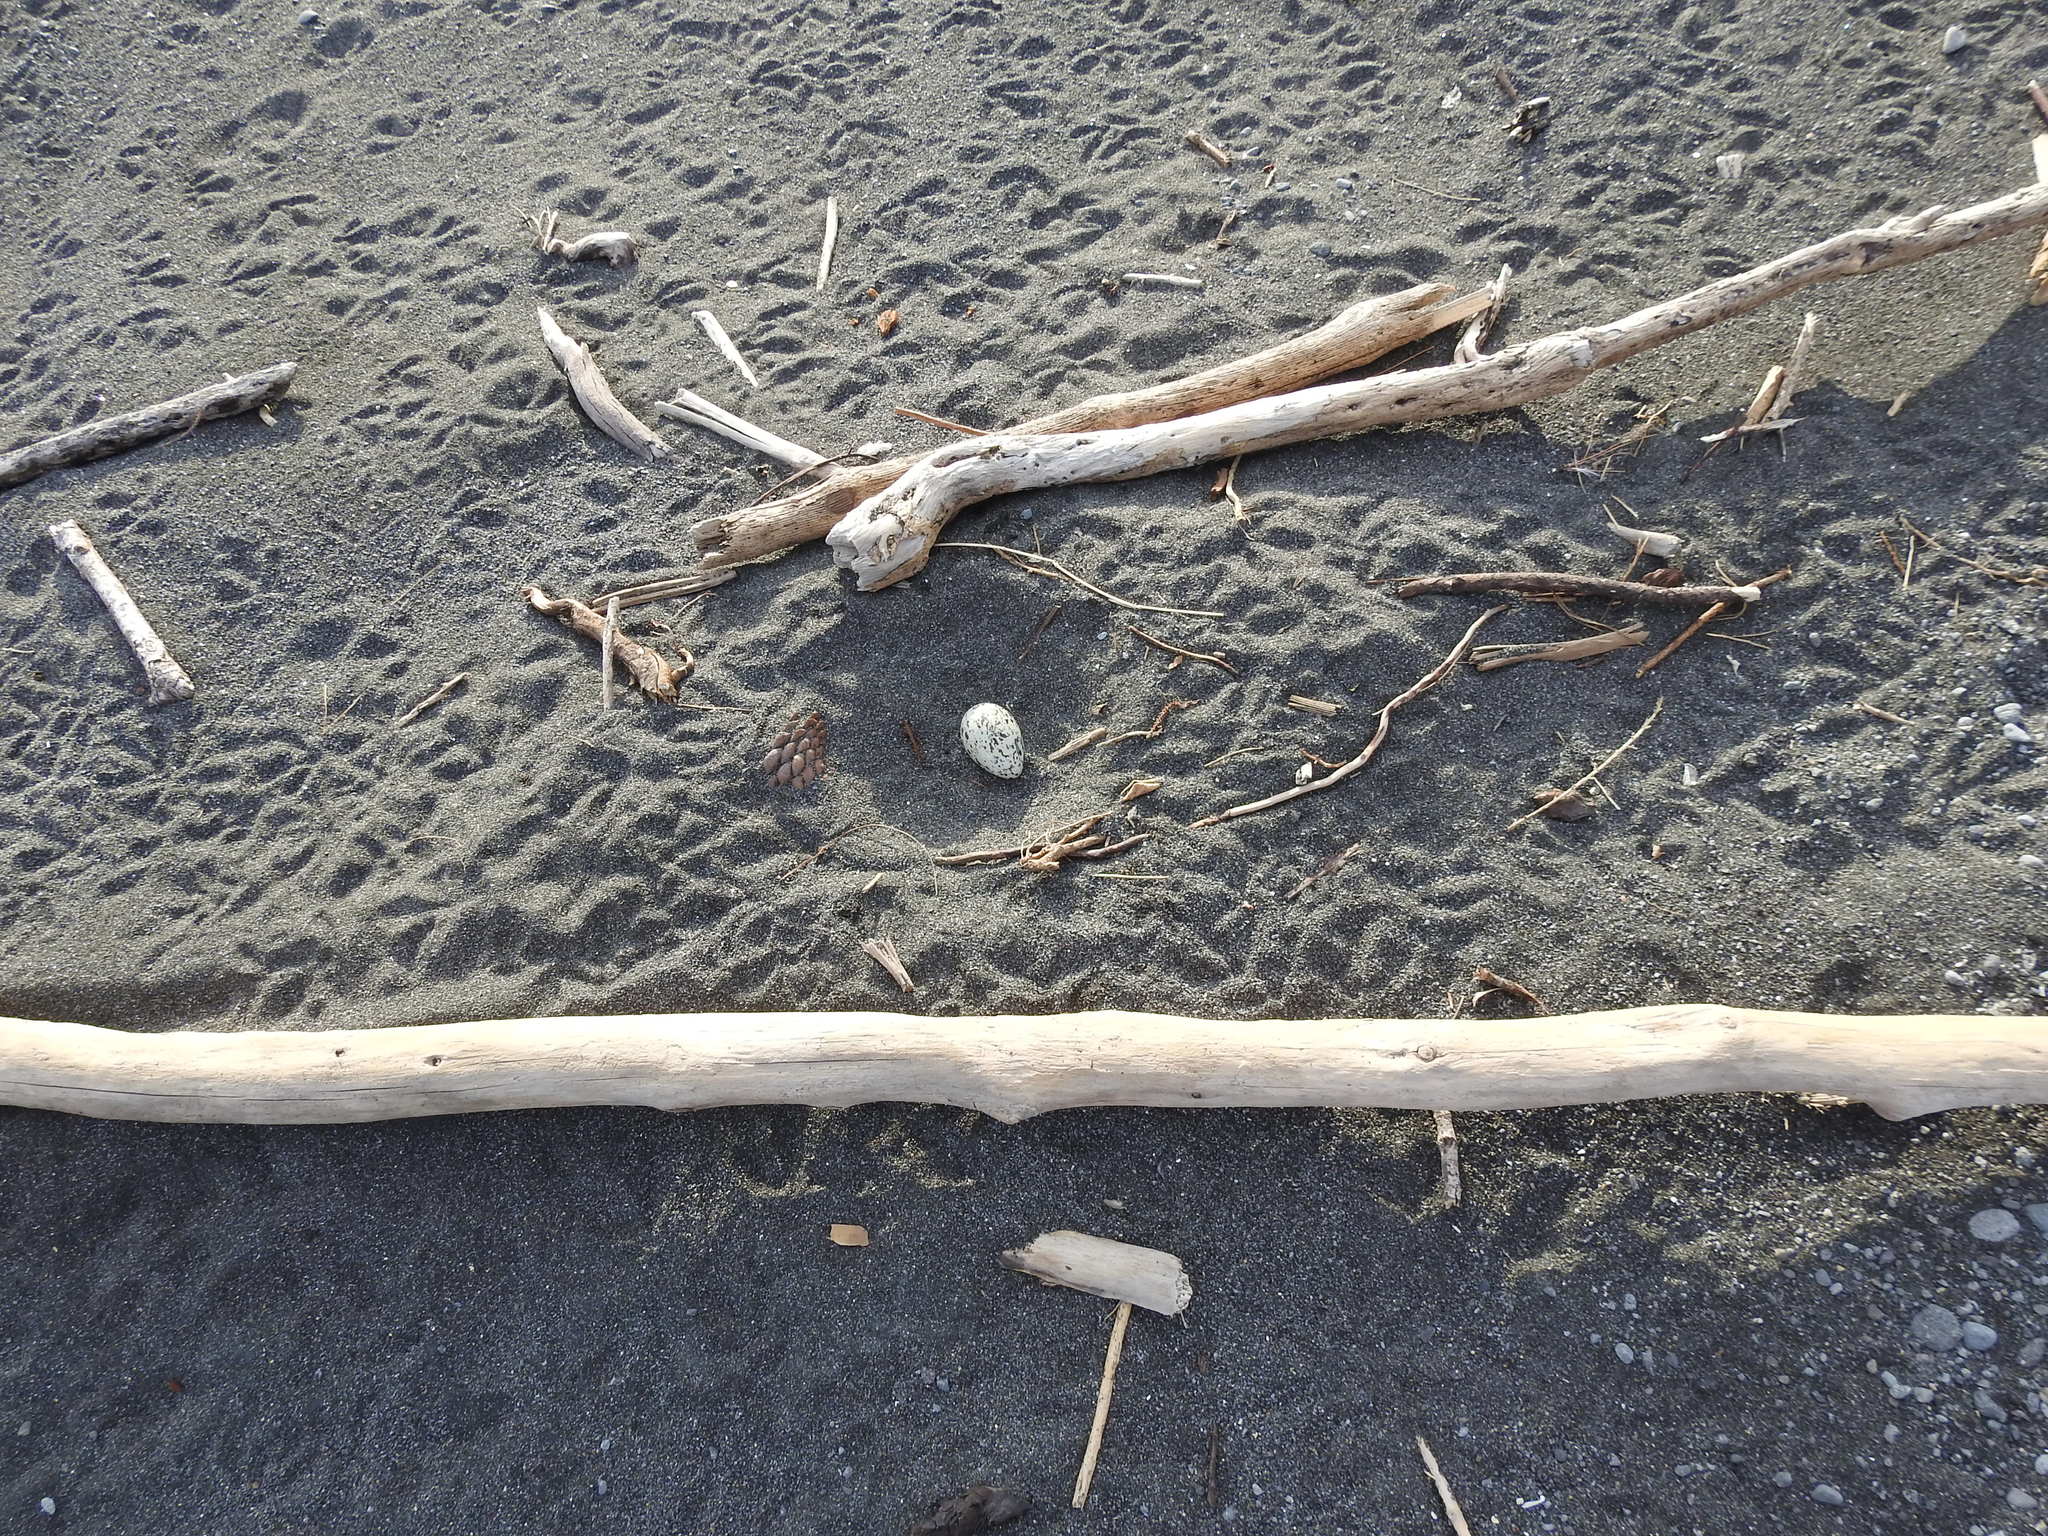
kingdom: Animalia
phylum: Chordata
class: Aves
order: Charadriiformes
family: Haematopodidae
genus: Haematopus
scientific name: Haematopus unicolor
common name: Variable oystercatcher
